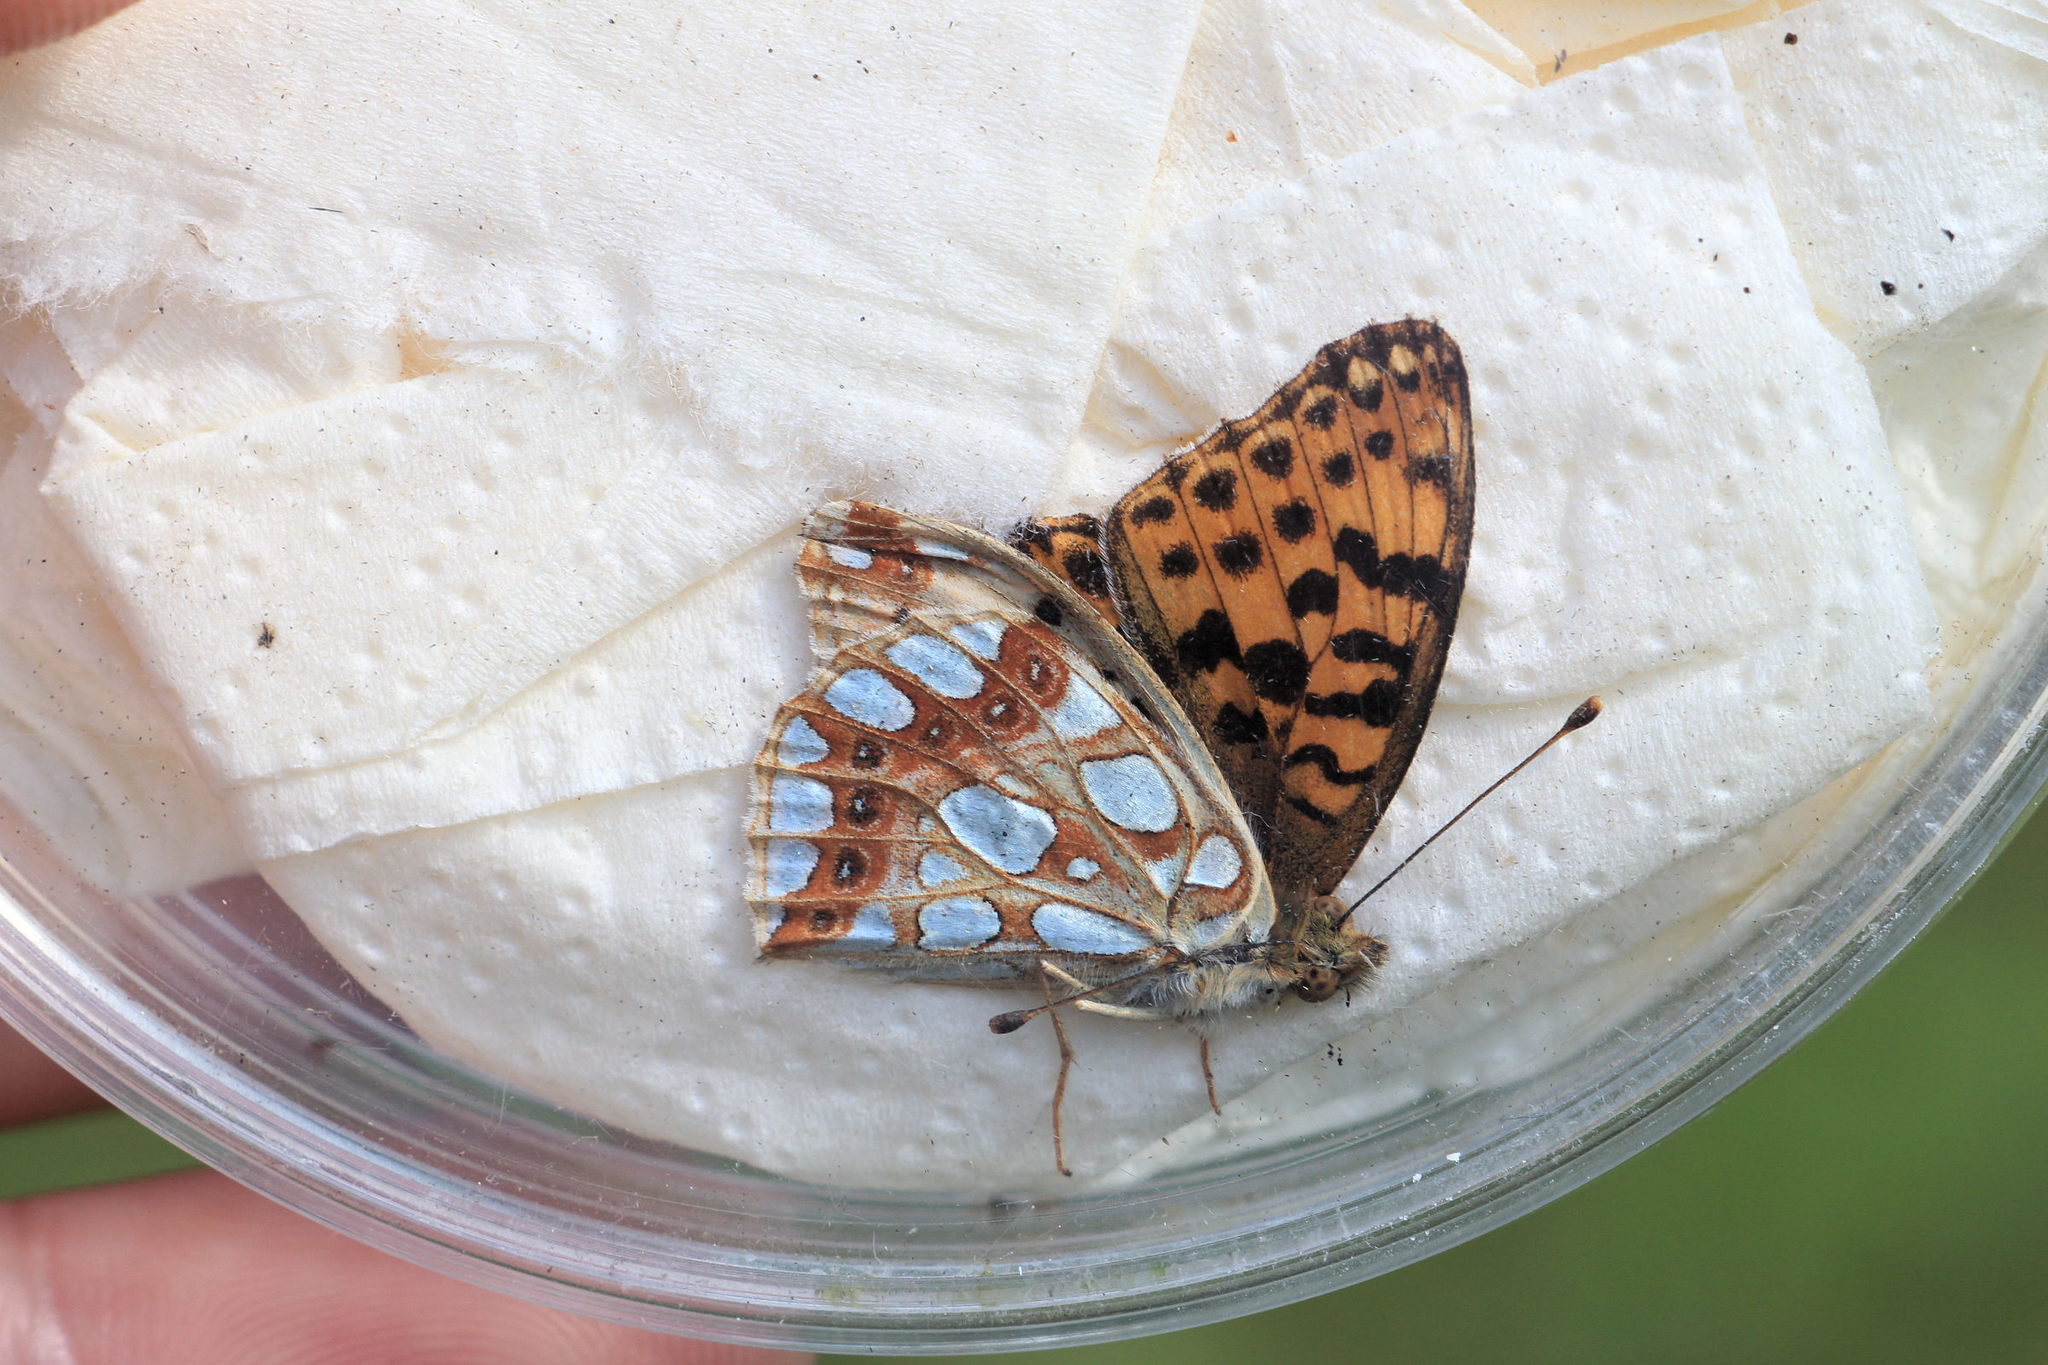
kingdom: Animalia
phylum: Arthropoda
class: Insecta
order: Lepidoptera
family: Nymphalidae
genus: Issoria
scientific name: Issoria lathonia
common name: Queen of spain fritillary
